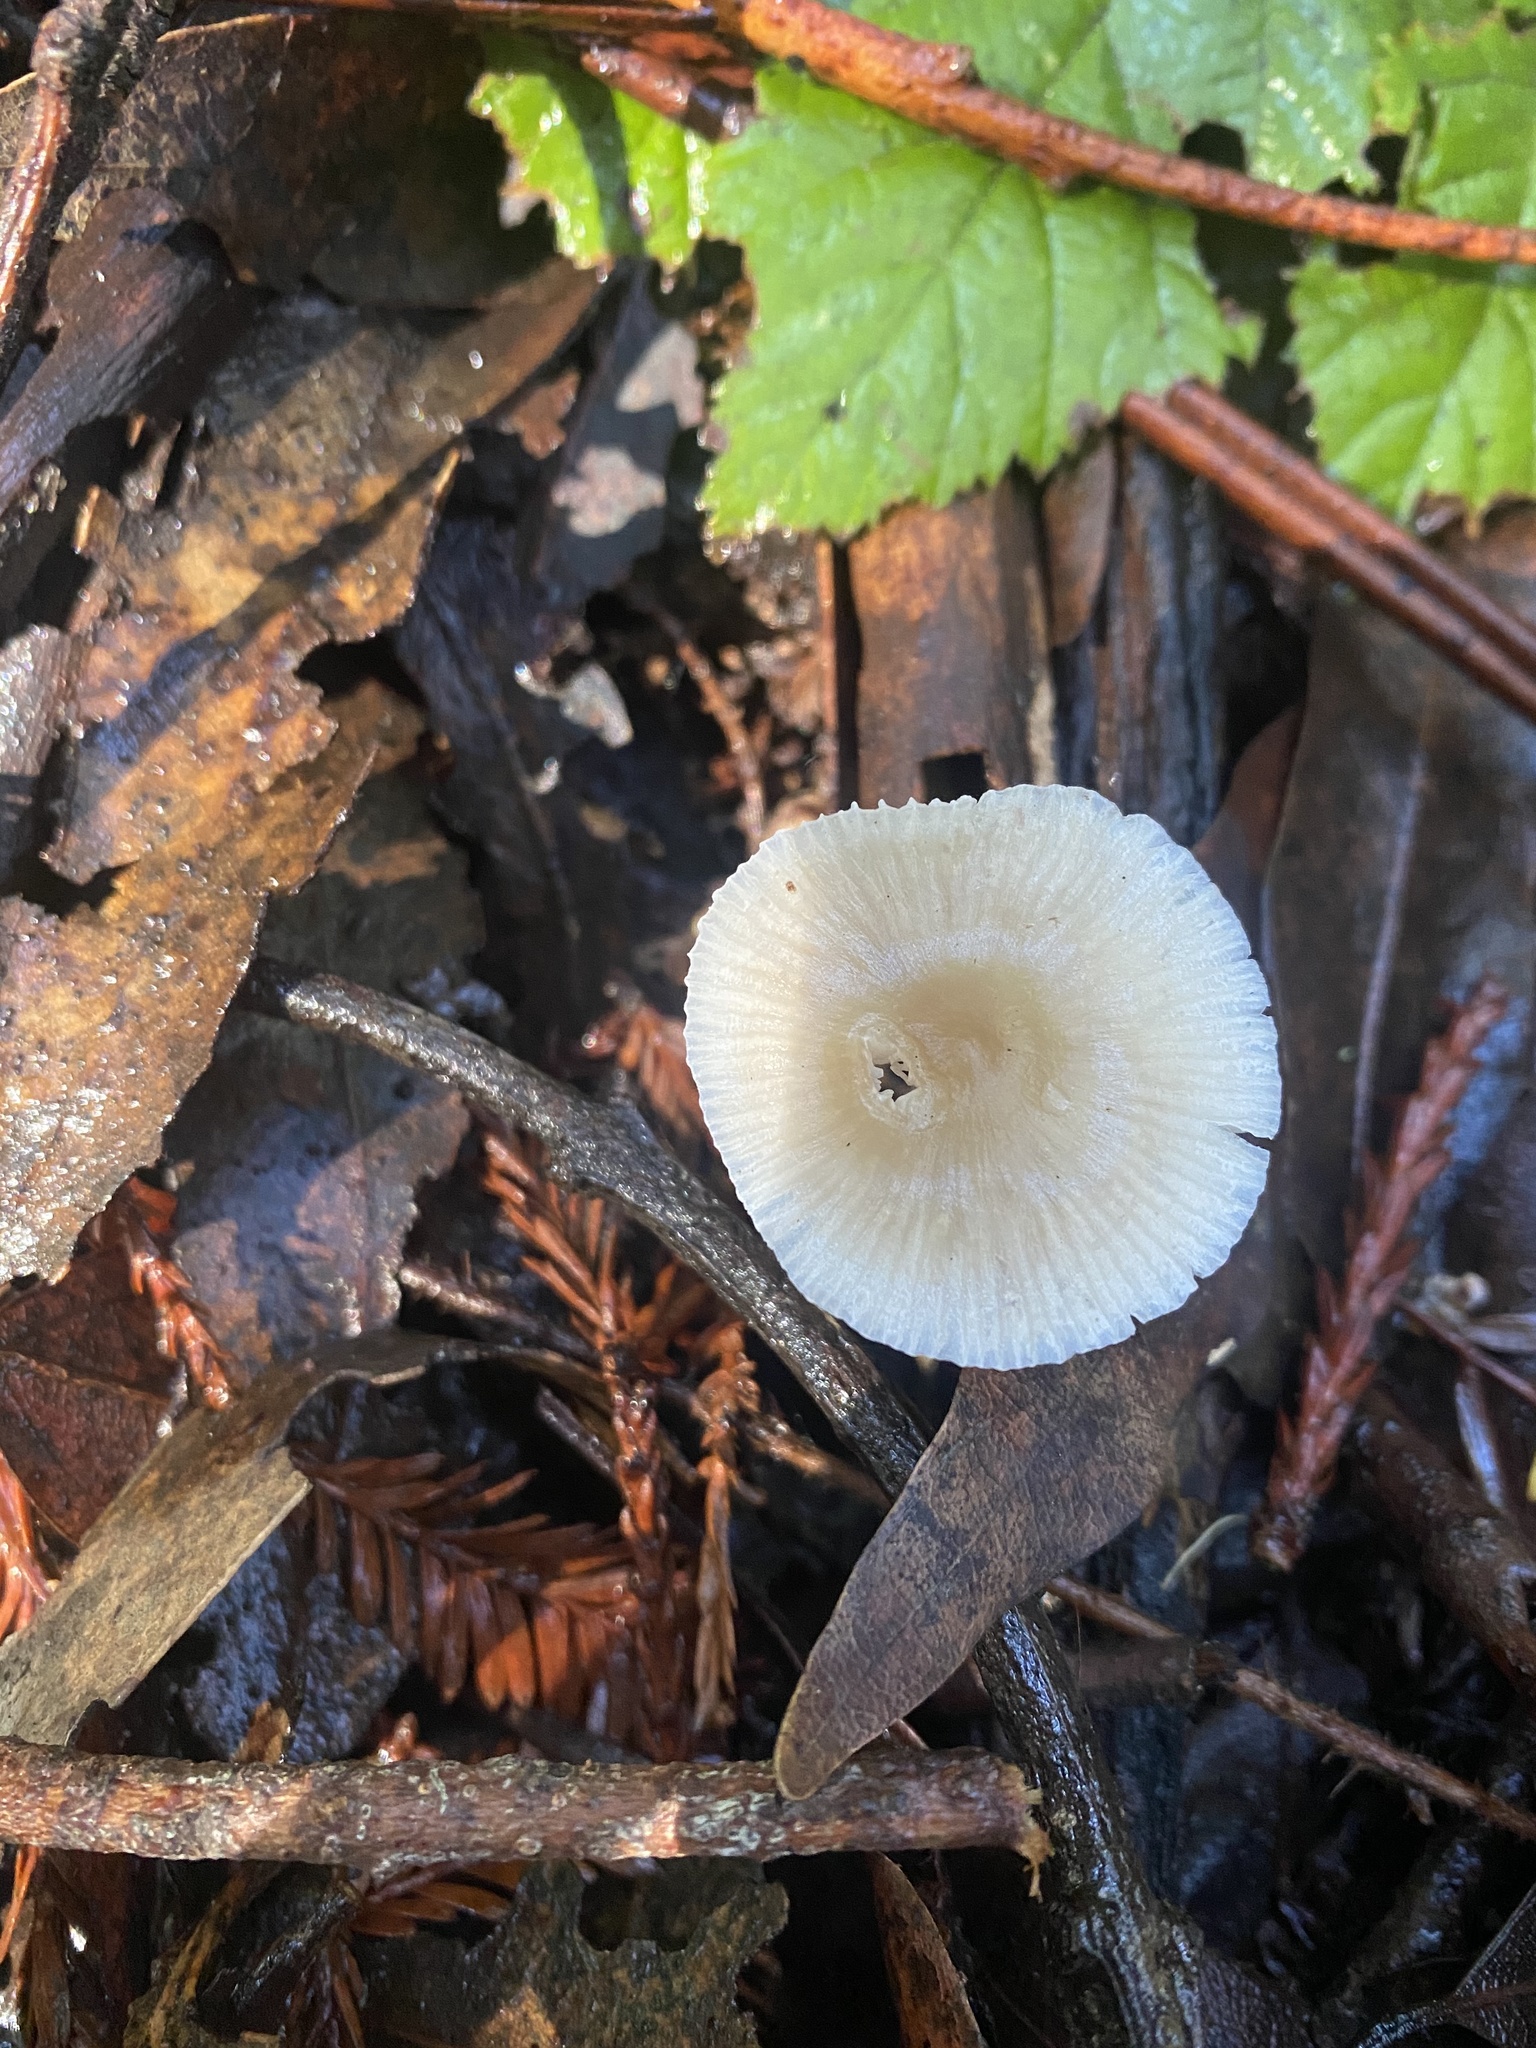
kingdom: Fungi
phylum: Basidiomycota
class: Agaricomycetes
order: Agaricales
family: Mycenaceae
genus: Mycena
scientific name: Mycena galericulata
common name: Bonnet mycena
